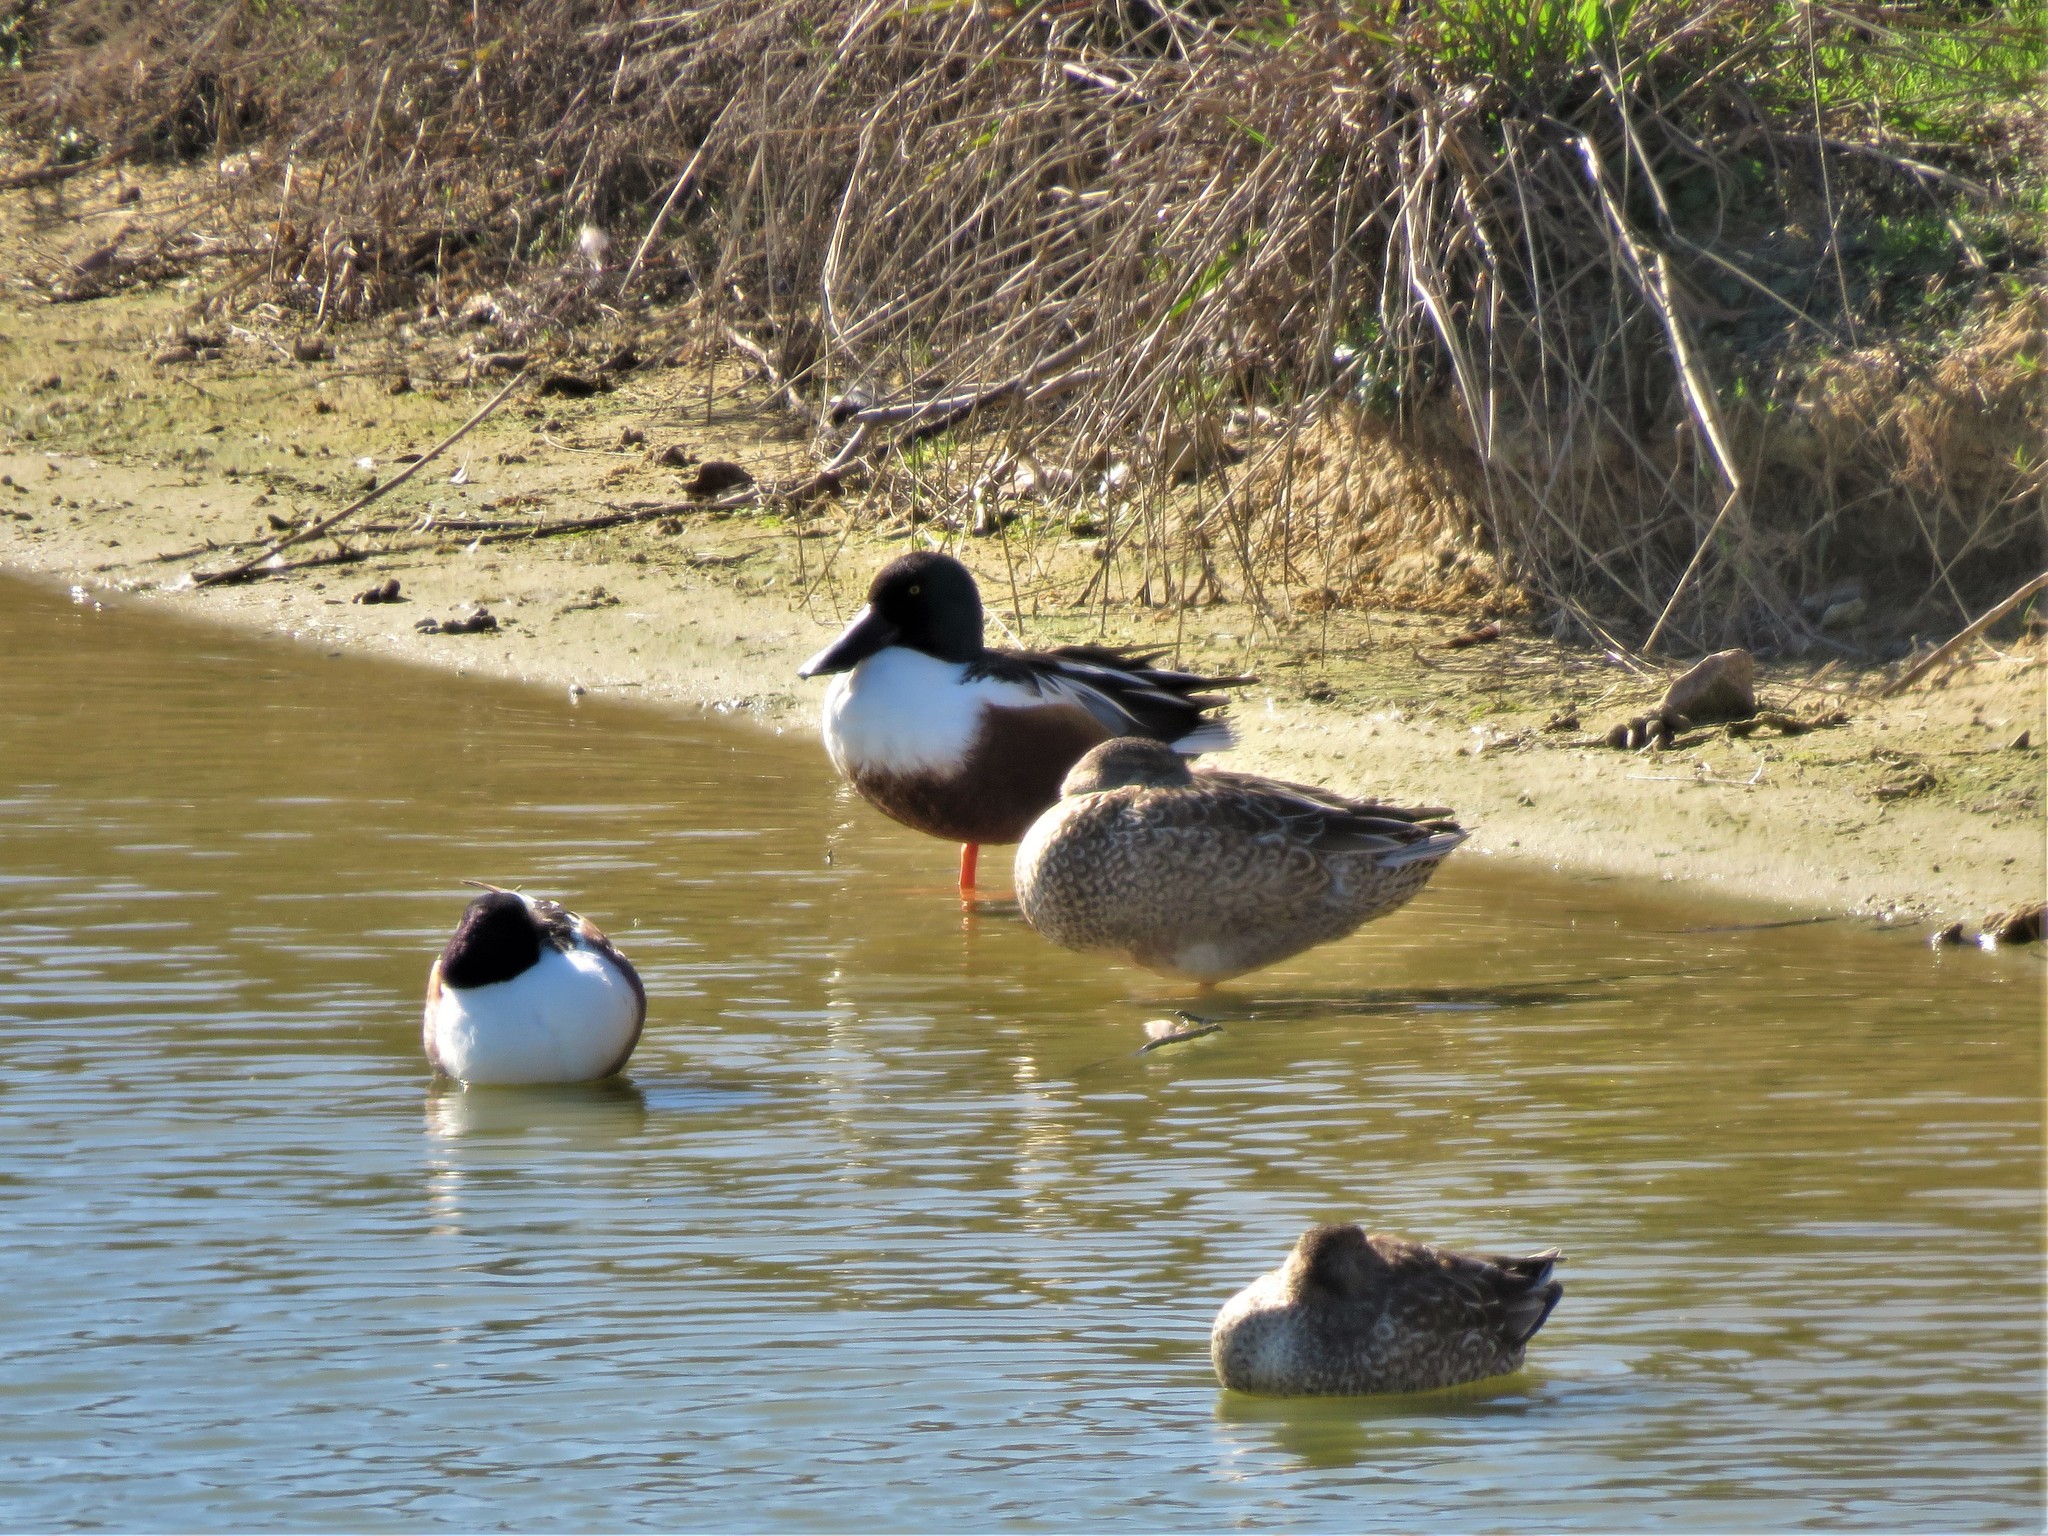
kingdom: Animalia
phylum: Chordata
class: Aves
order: Anseriformes
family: Anatidae
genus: Spatula
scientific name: Spatula clypeata
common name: Northern shoveler
